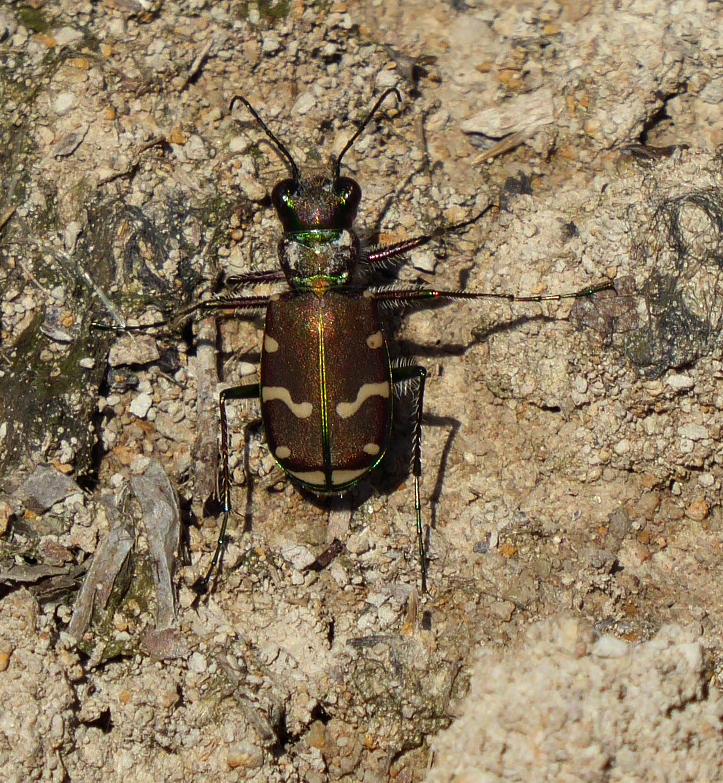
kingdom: Animalia
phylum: Arthropoda
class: Insecta
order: Coleoptera
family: Carabidae
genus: Cicindela
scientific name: Cicindela limbalis
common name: Common claybank tiger beetle
